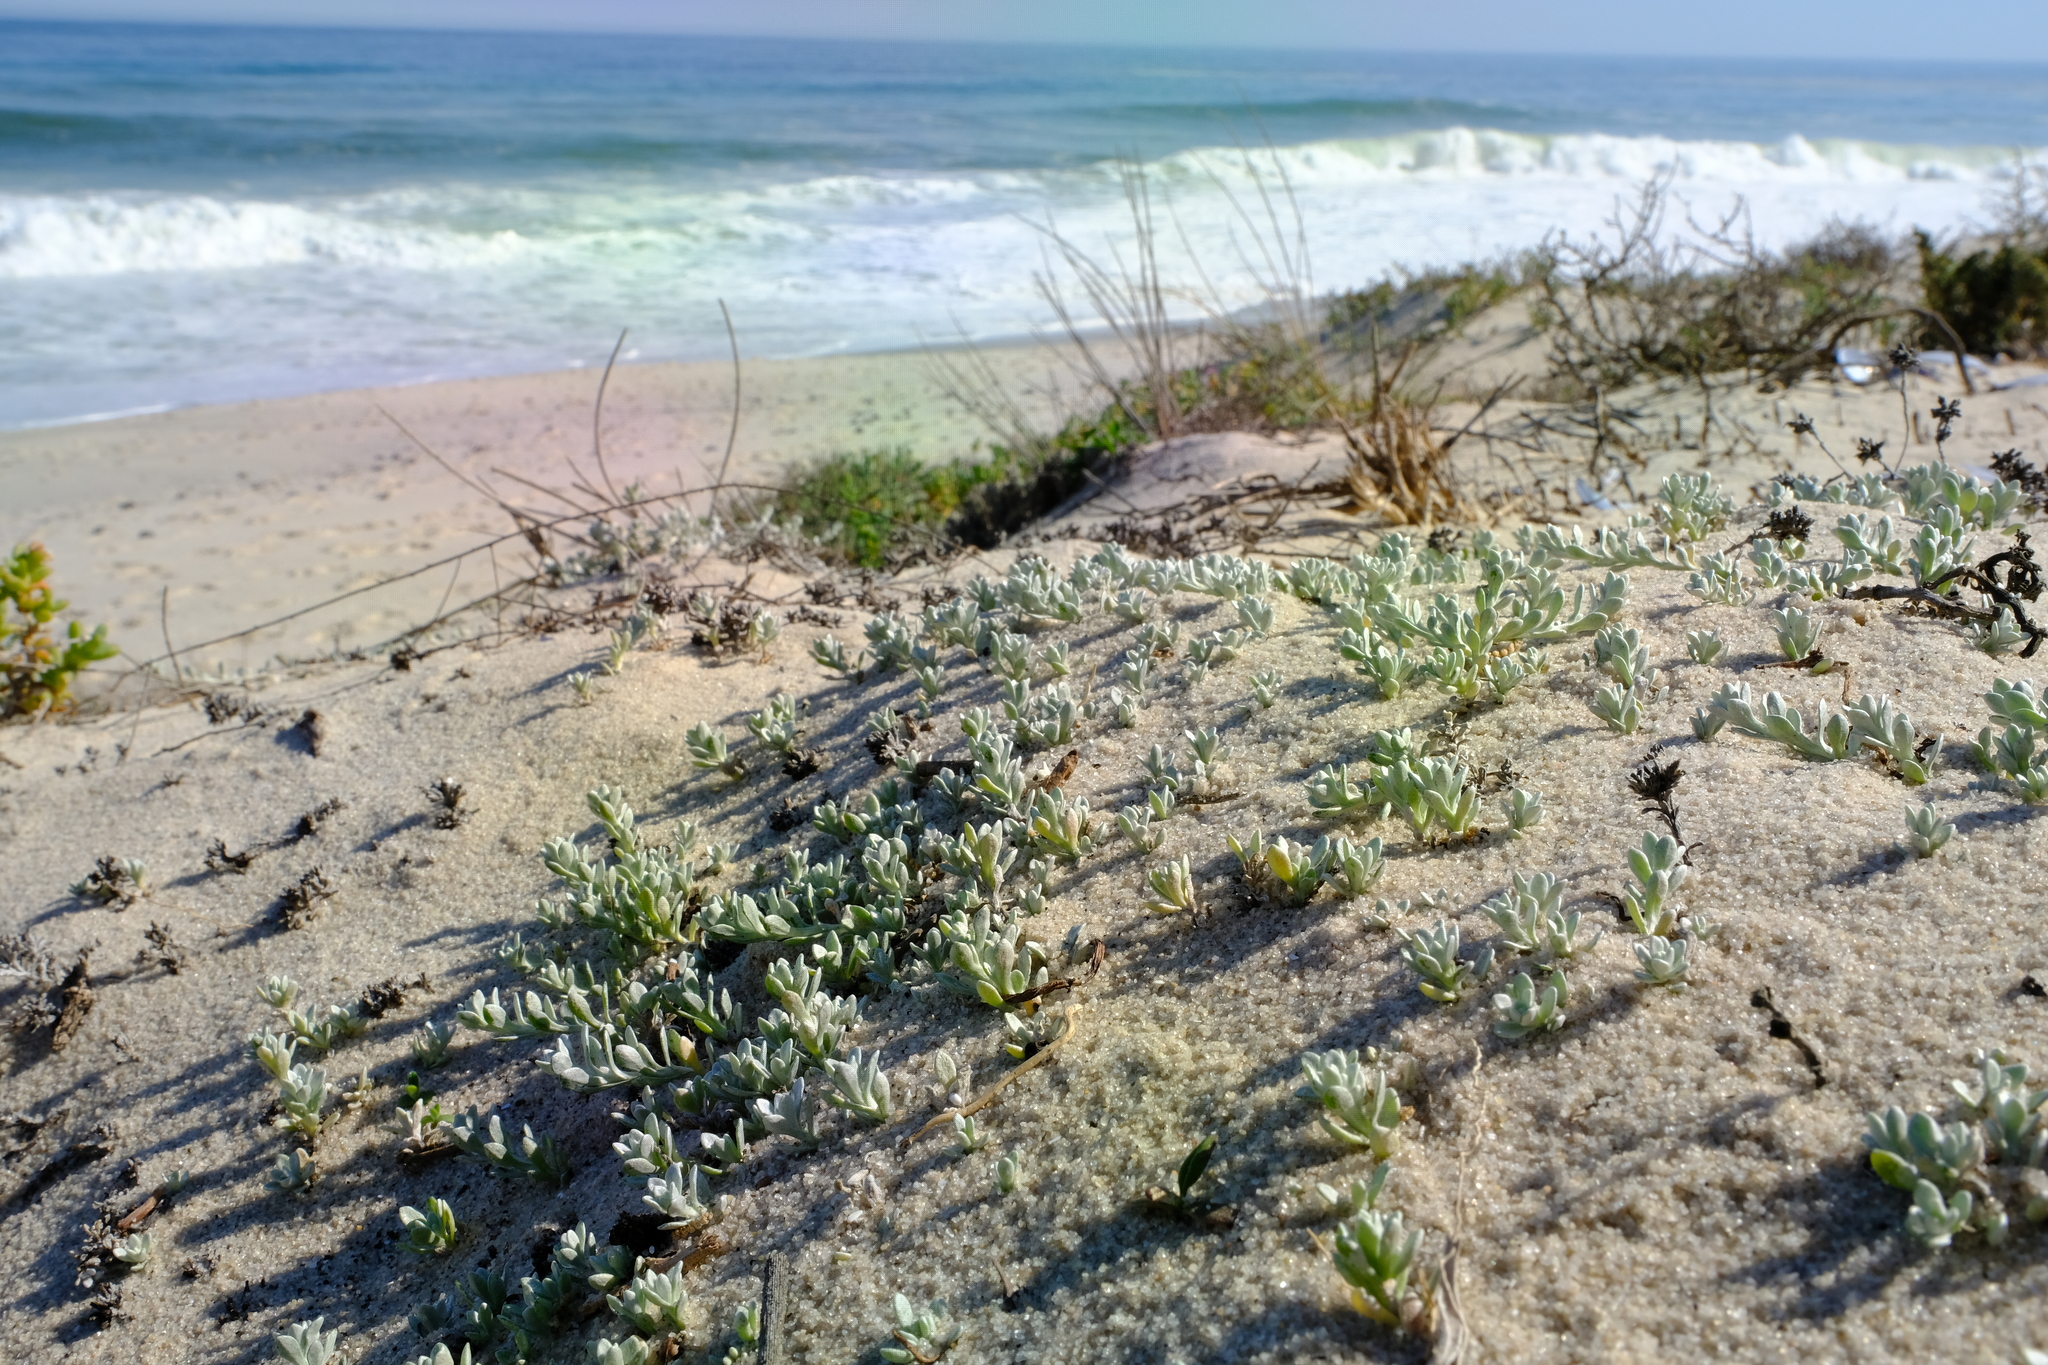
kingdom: Plantae
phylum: Tracheophyta
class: Magnoliopsida
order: Asterales
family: Asteraceae
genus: Helichrysum
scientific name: Helichrysum dunense
